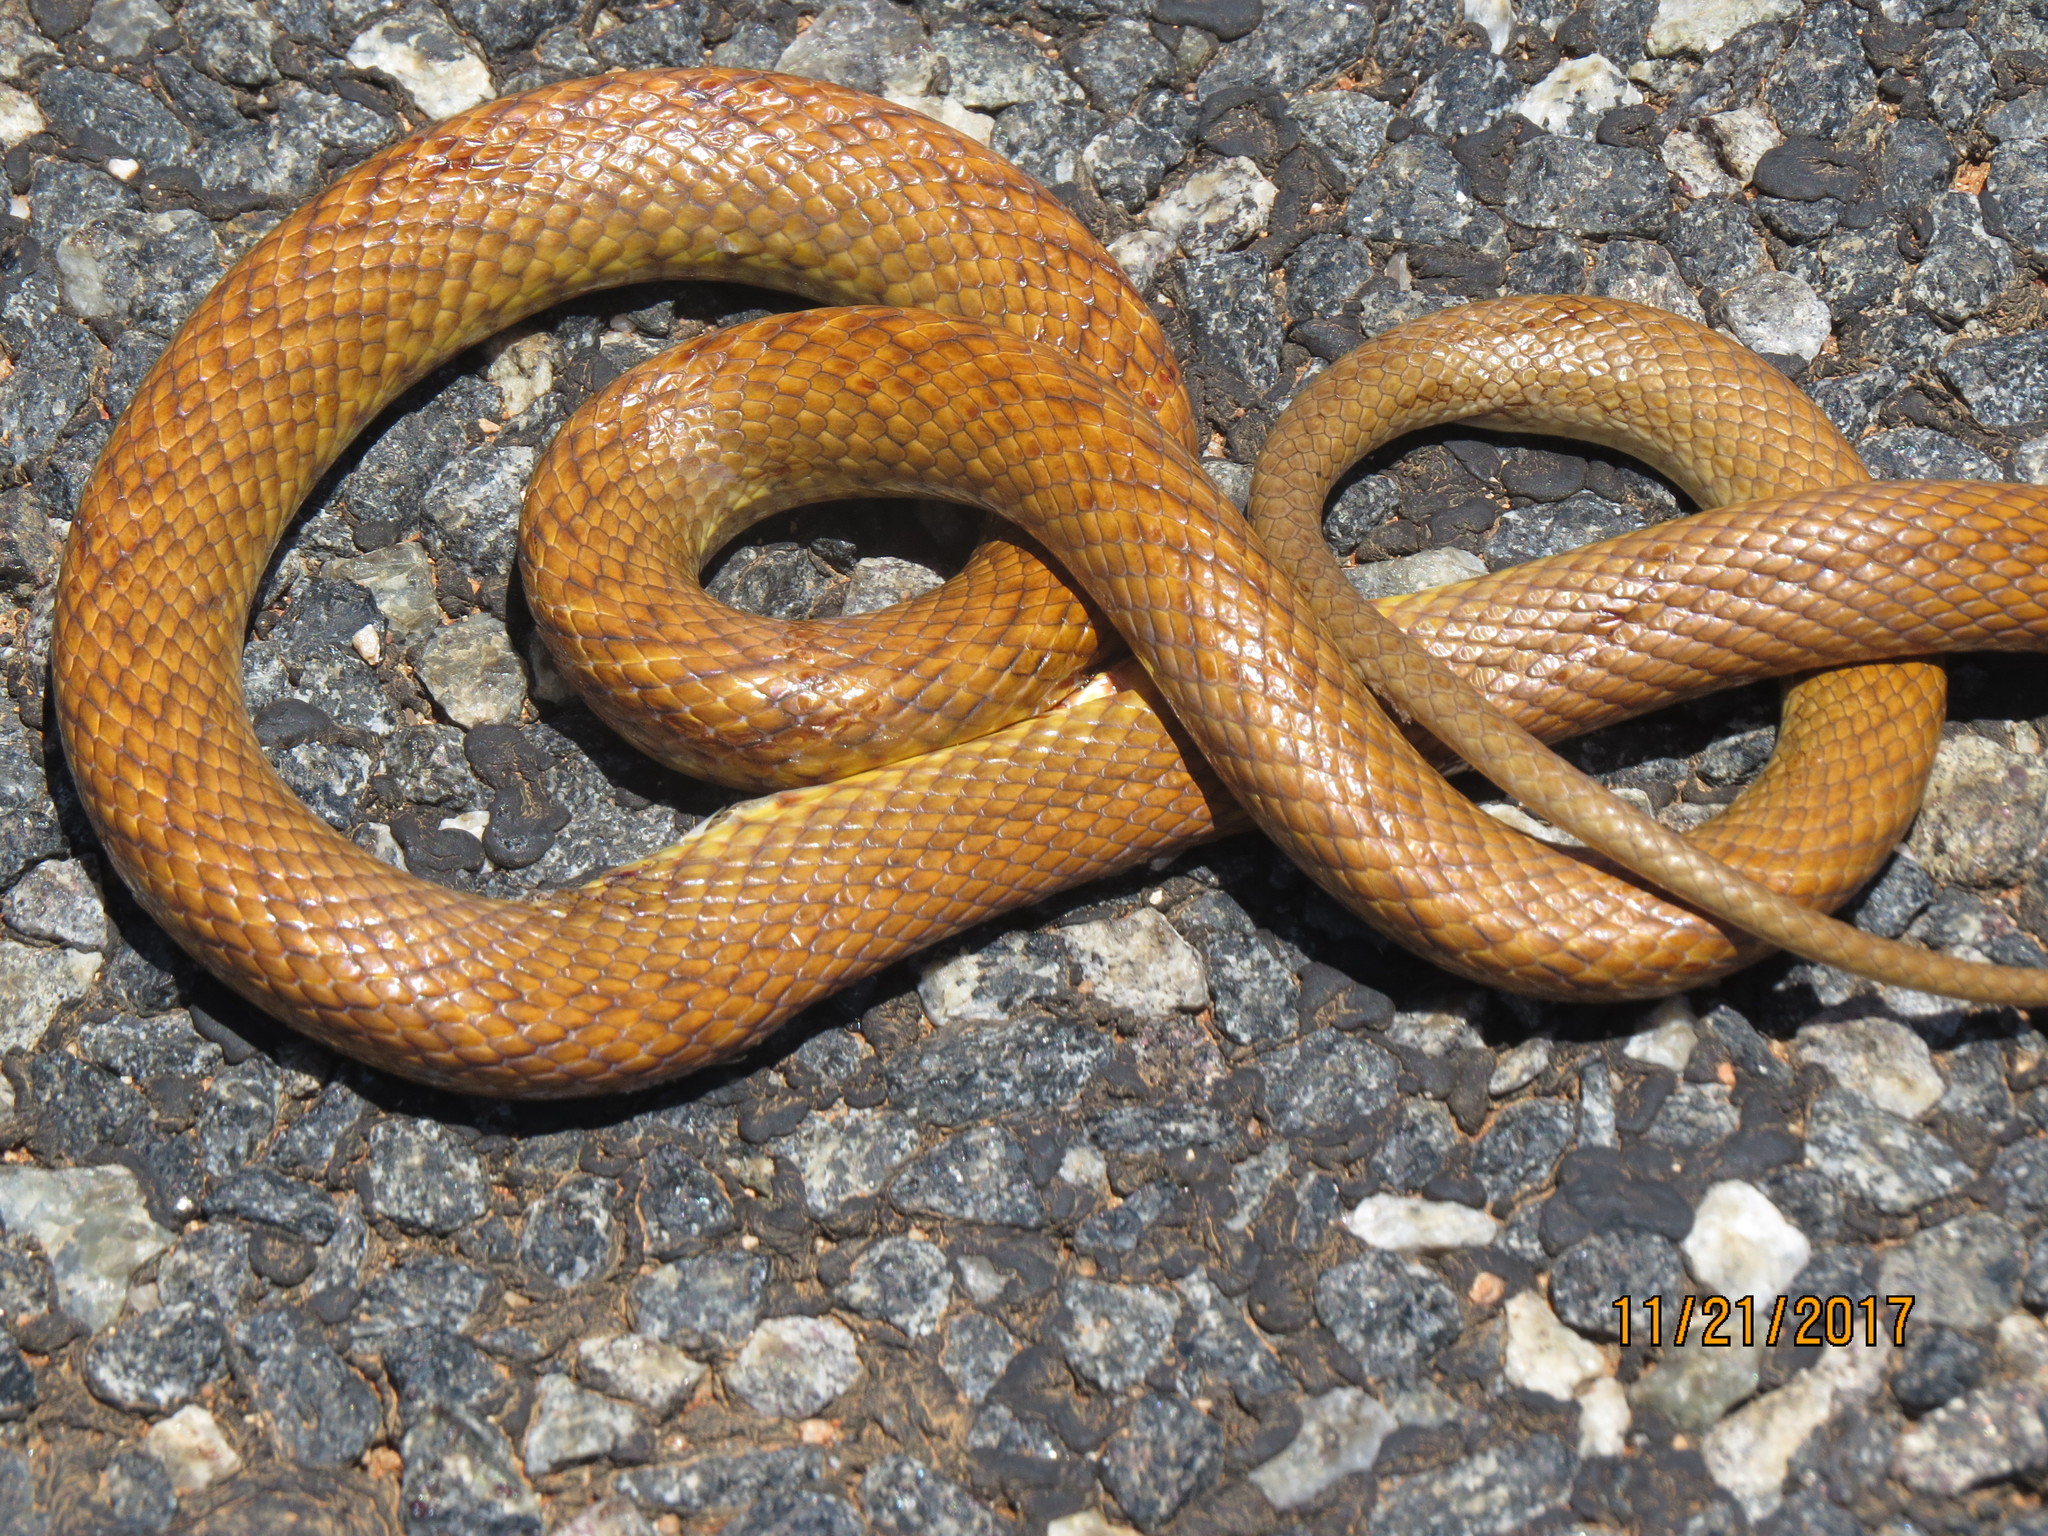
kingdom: Animalia
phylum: Chordata
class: Squamata
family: Elapidae
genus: Pseudonaja
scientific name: Pseudonaja mengdeni
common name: Gwardar
